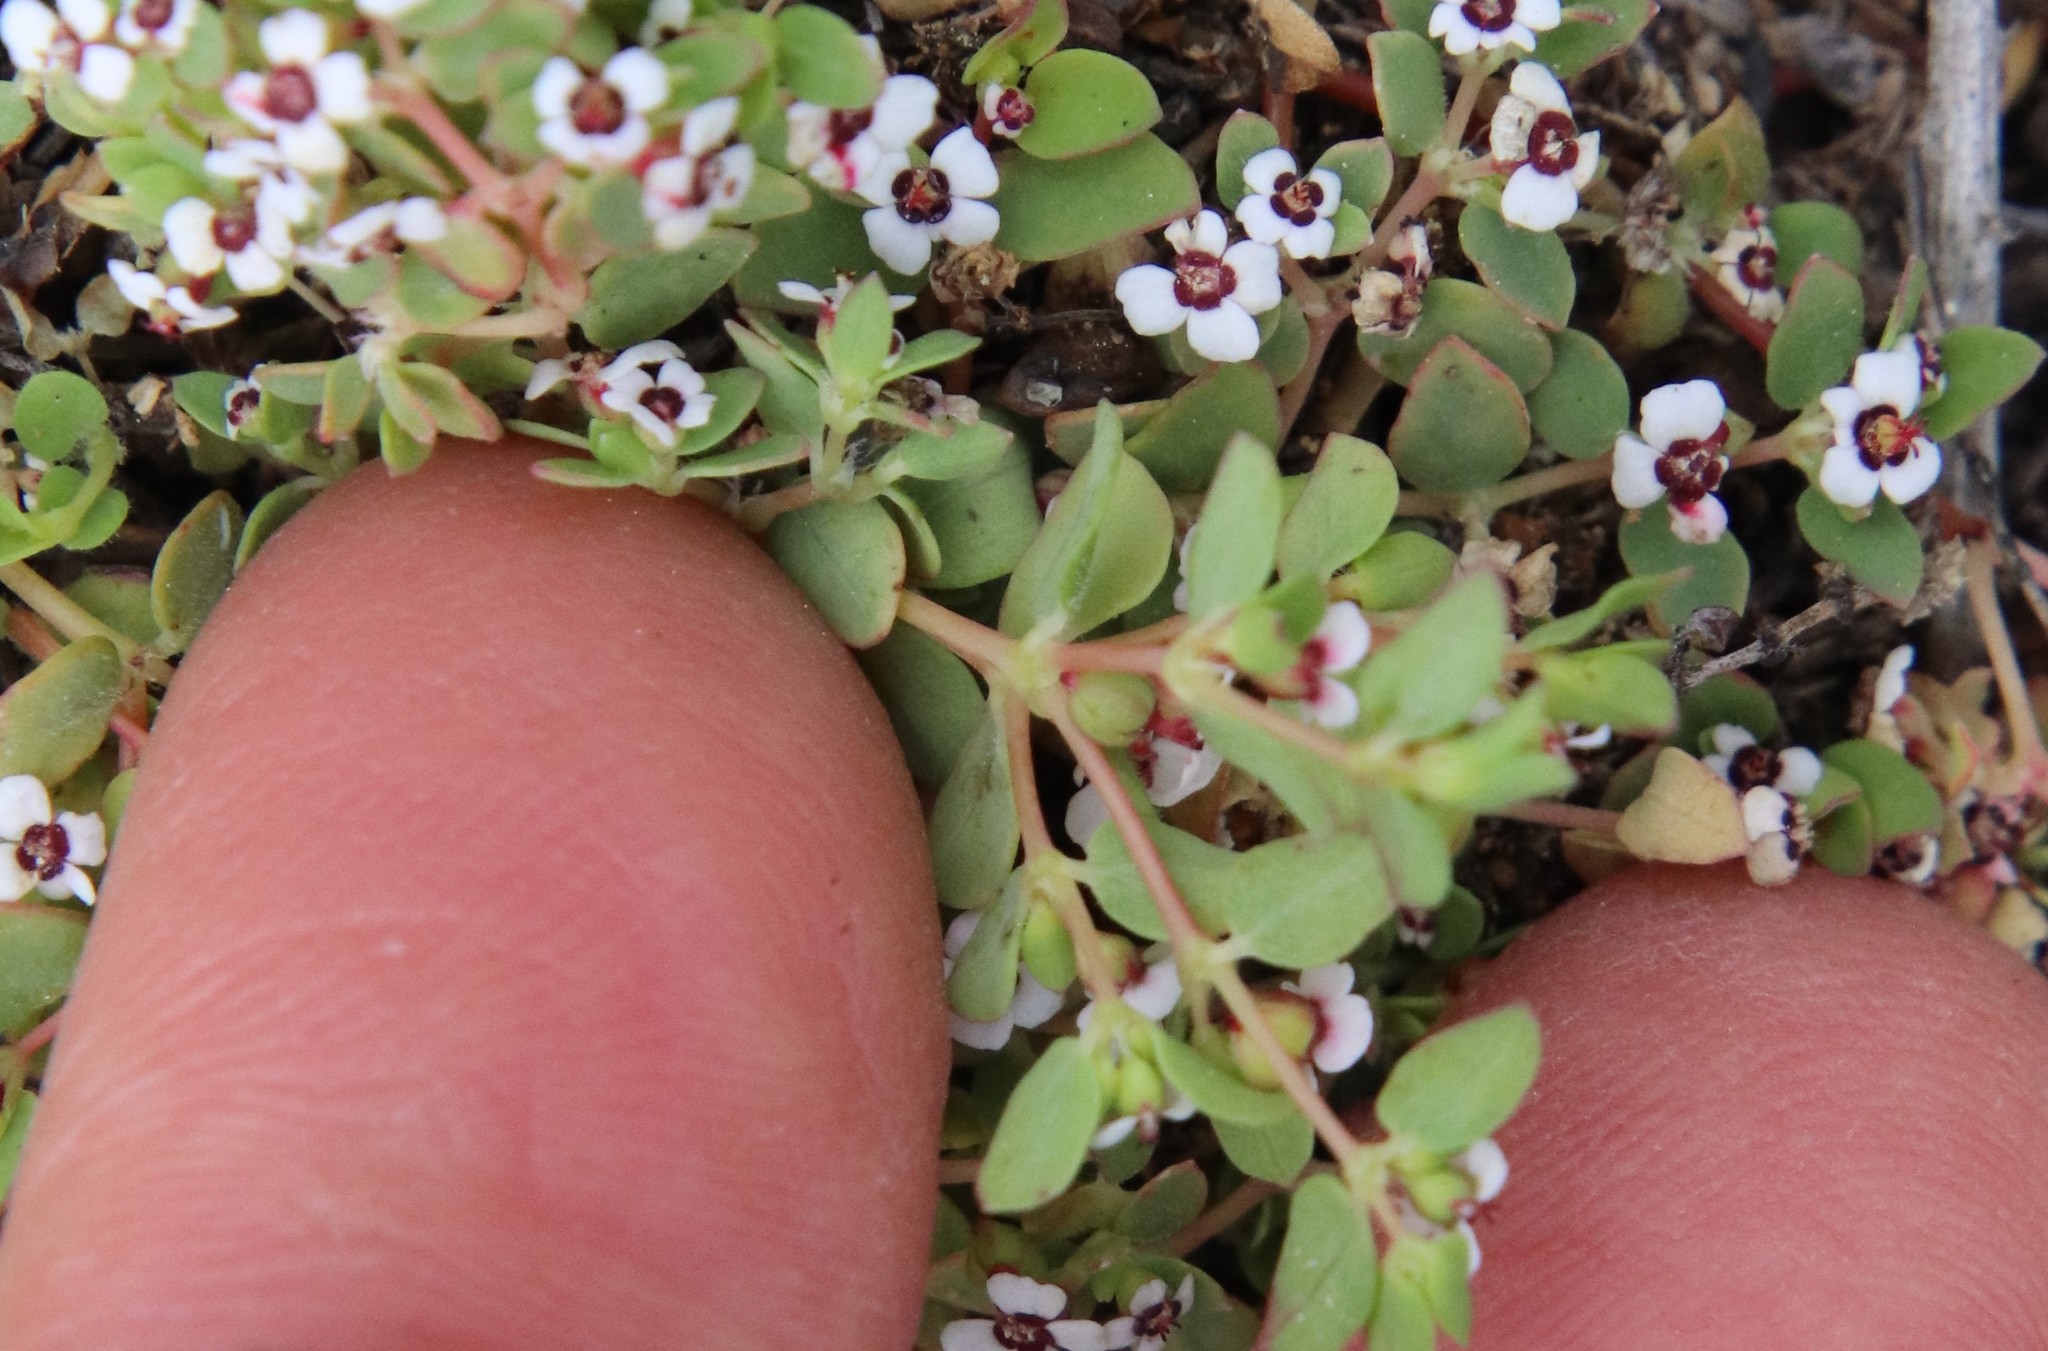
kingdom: Plantae
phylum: Tracheophyta
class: Magnoliopsida
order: Malpighiales
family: Euphorbiaceae
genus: Euphorbia
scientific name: Euphorbia polycarpa
